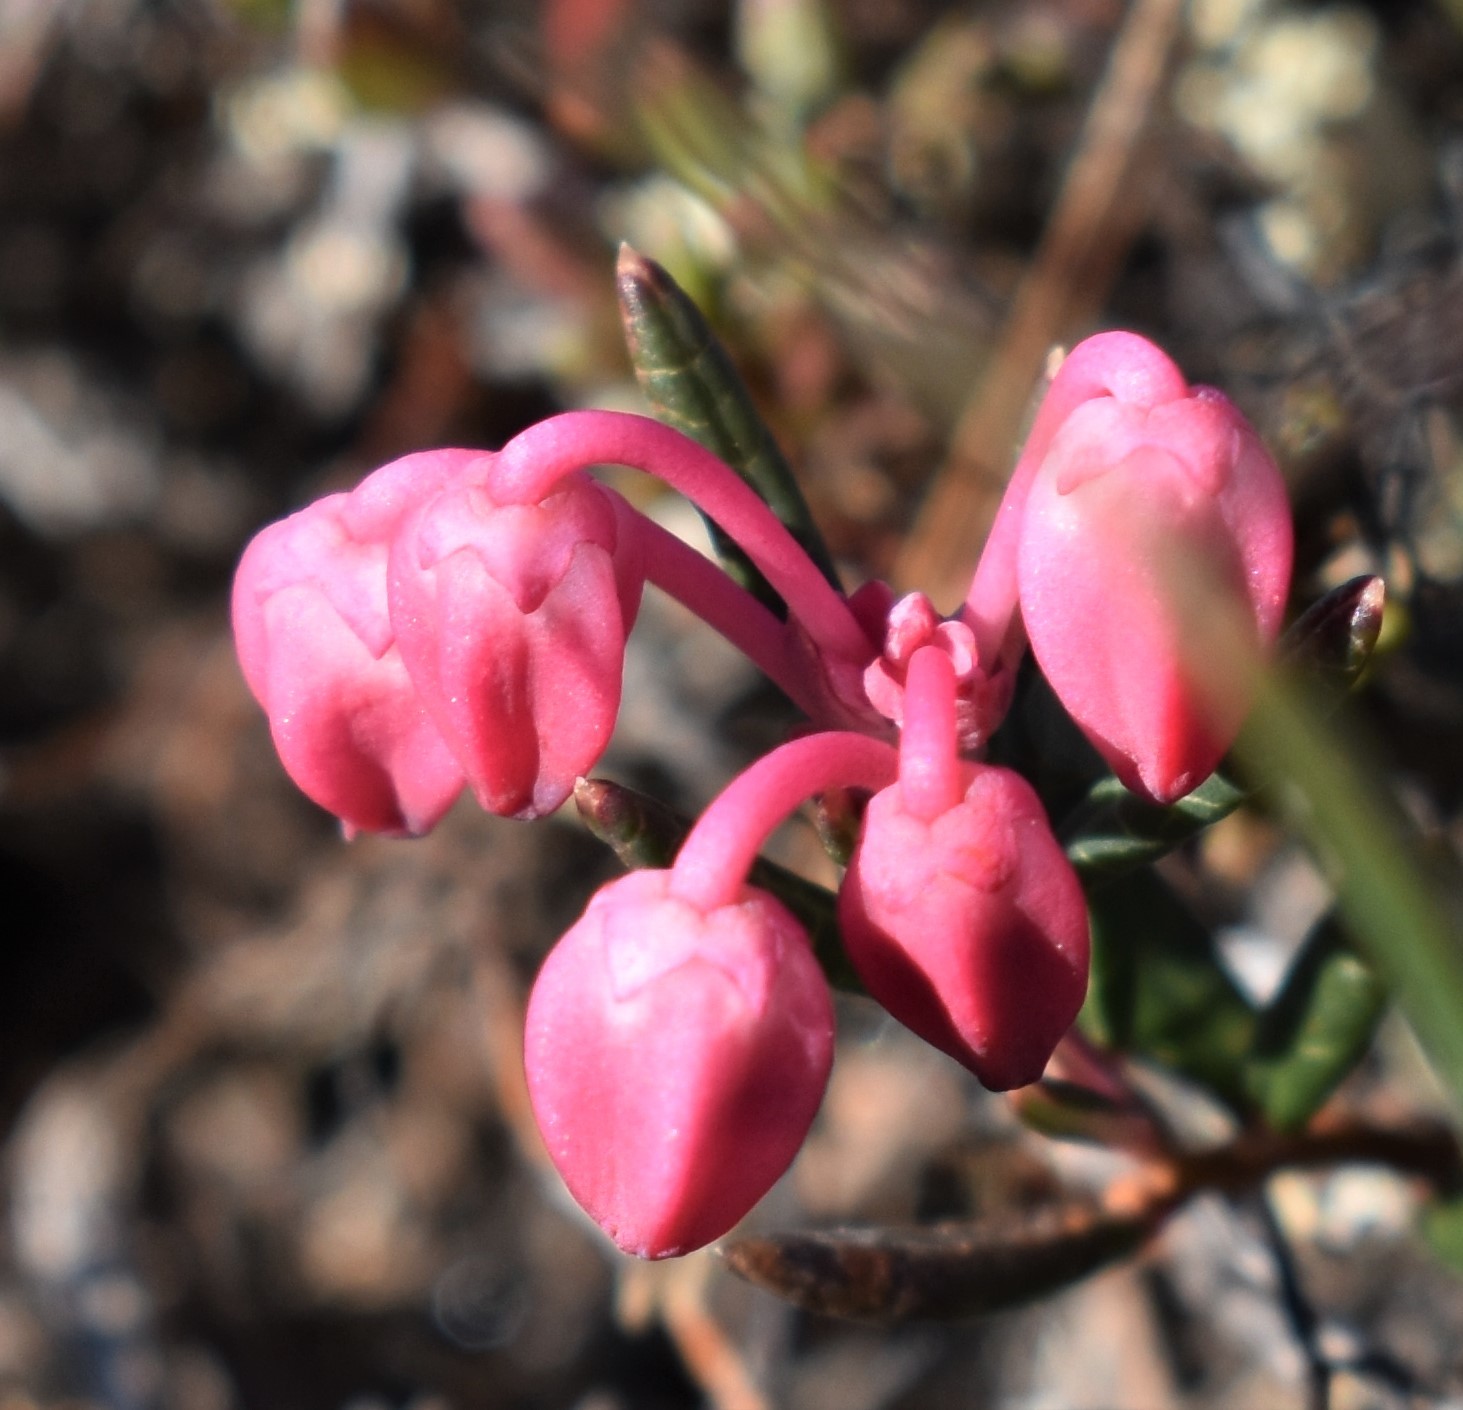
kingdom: Plantae
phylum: Tracheophyta
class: Magnoliopsida
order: Ericales
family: Ericaceae
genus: Andromeda
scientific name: Andromeda polifolia
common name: Bog-rosemary
